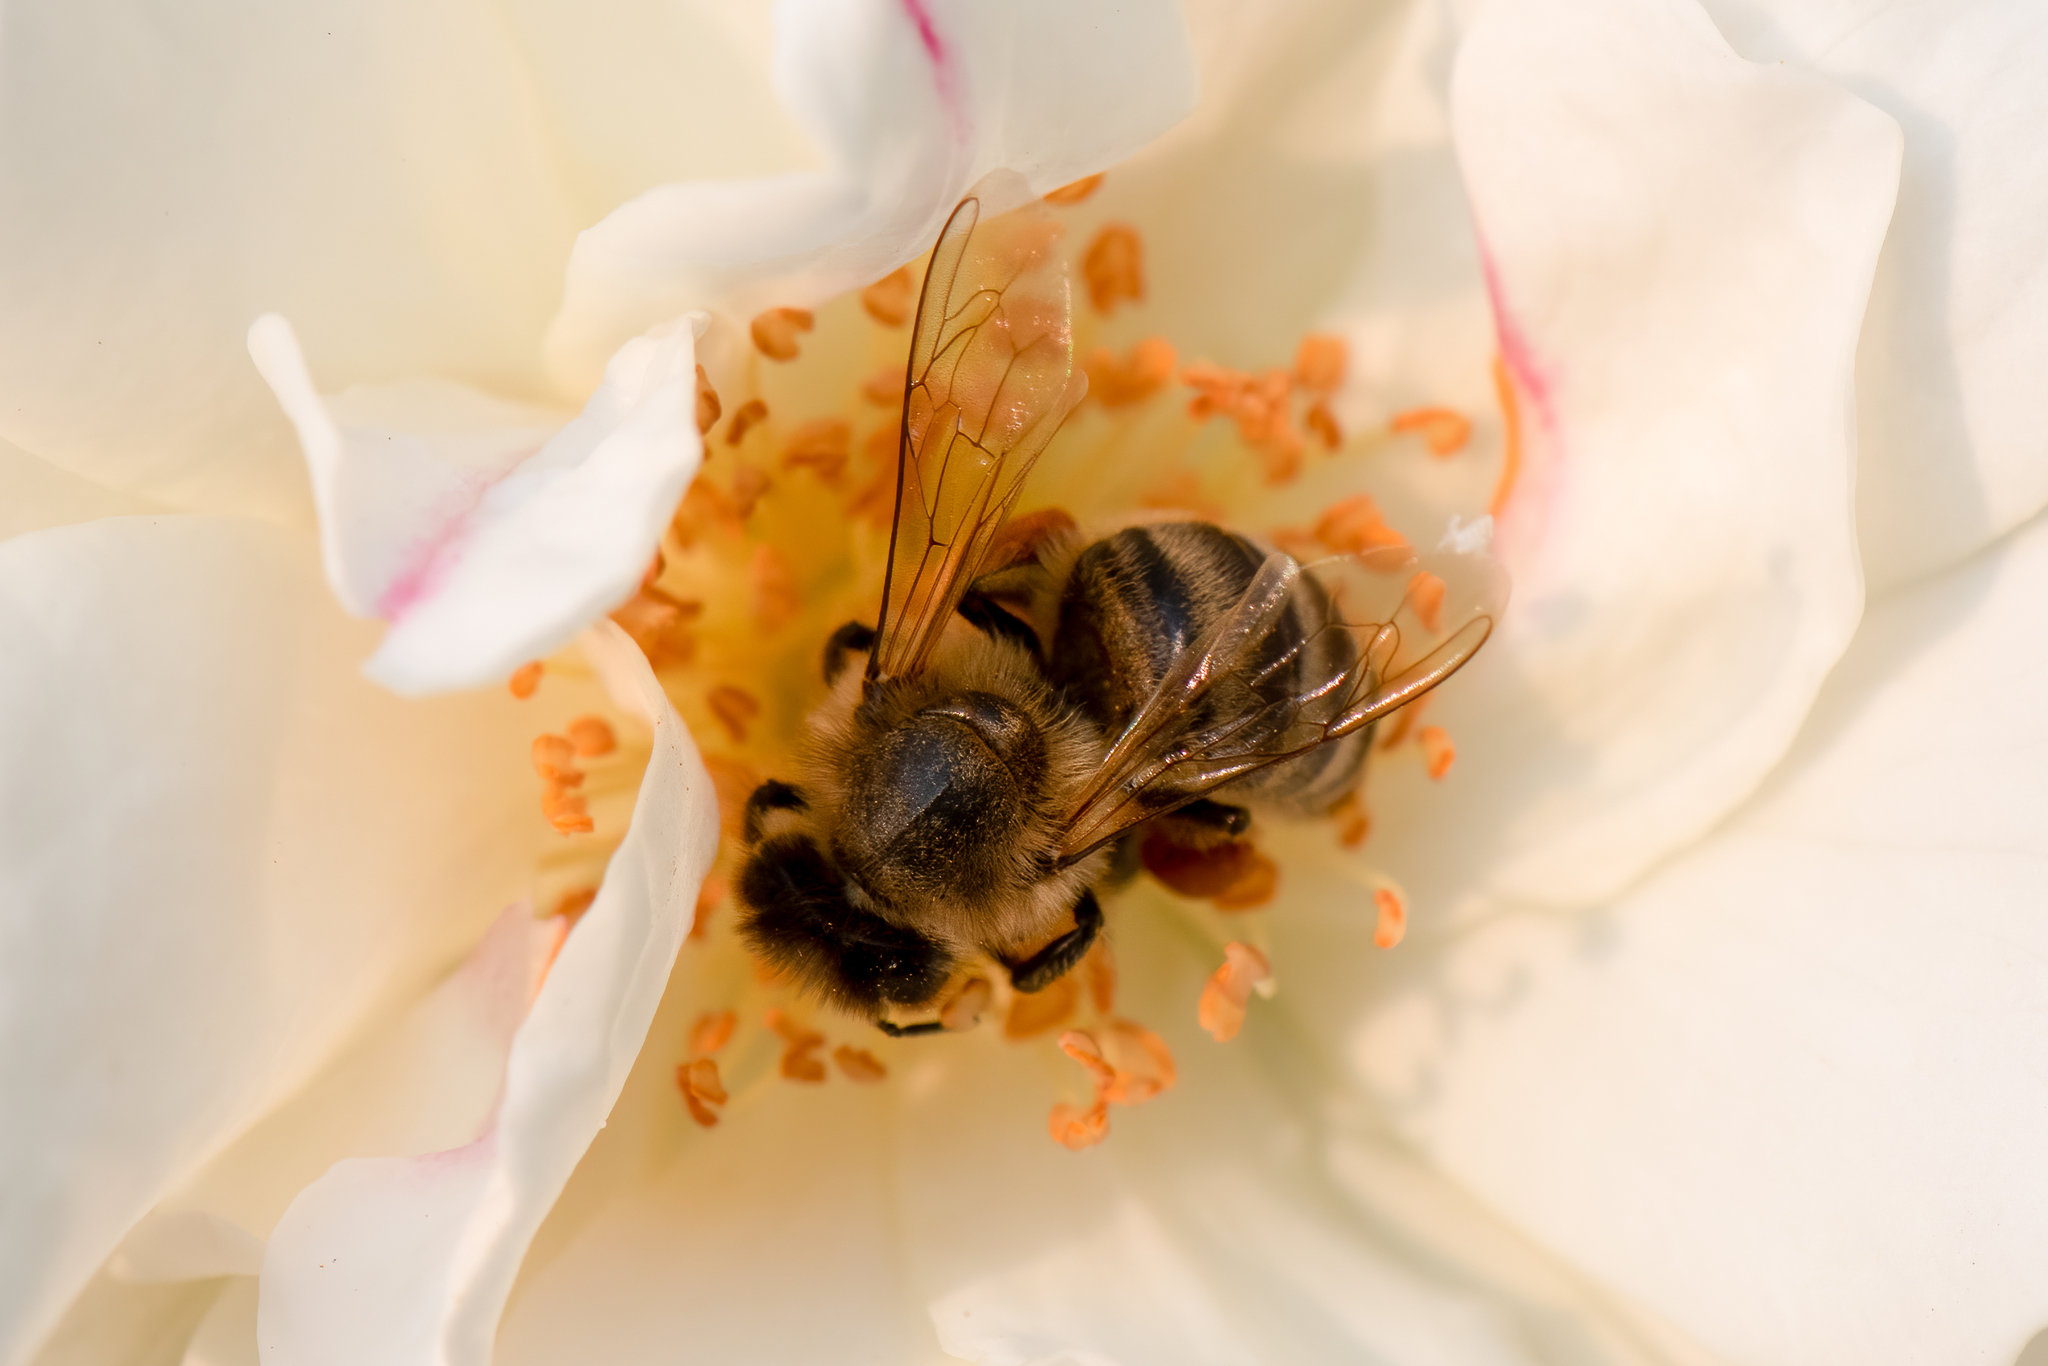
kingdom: Animalia
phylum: Arthropoda
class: Insecta
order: Hymenoptera
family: Apidae
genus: Apis
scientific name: Apis mellifera
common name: Honey bee
